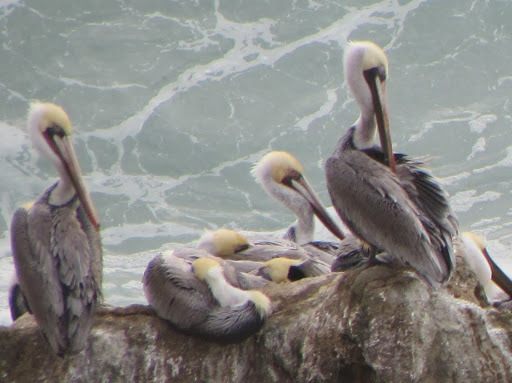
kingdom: Animalia
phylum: Chordata
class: Aves
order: Pelecaniformes
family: Pelecanidae
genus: Pelecanus
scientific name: Pelecanus occidentalis
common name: Brown pelican
